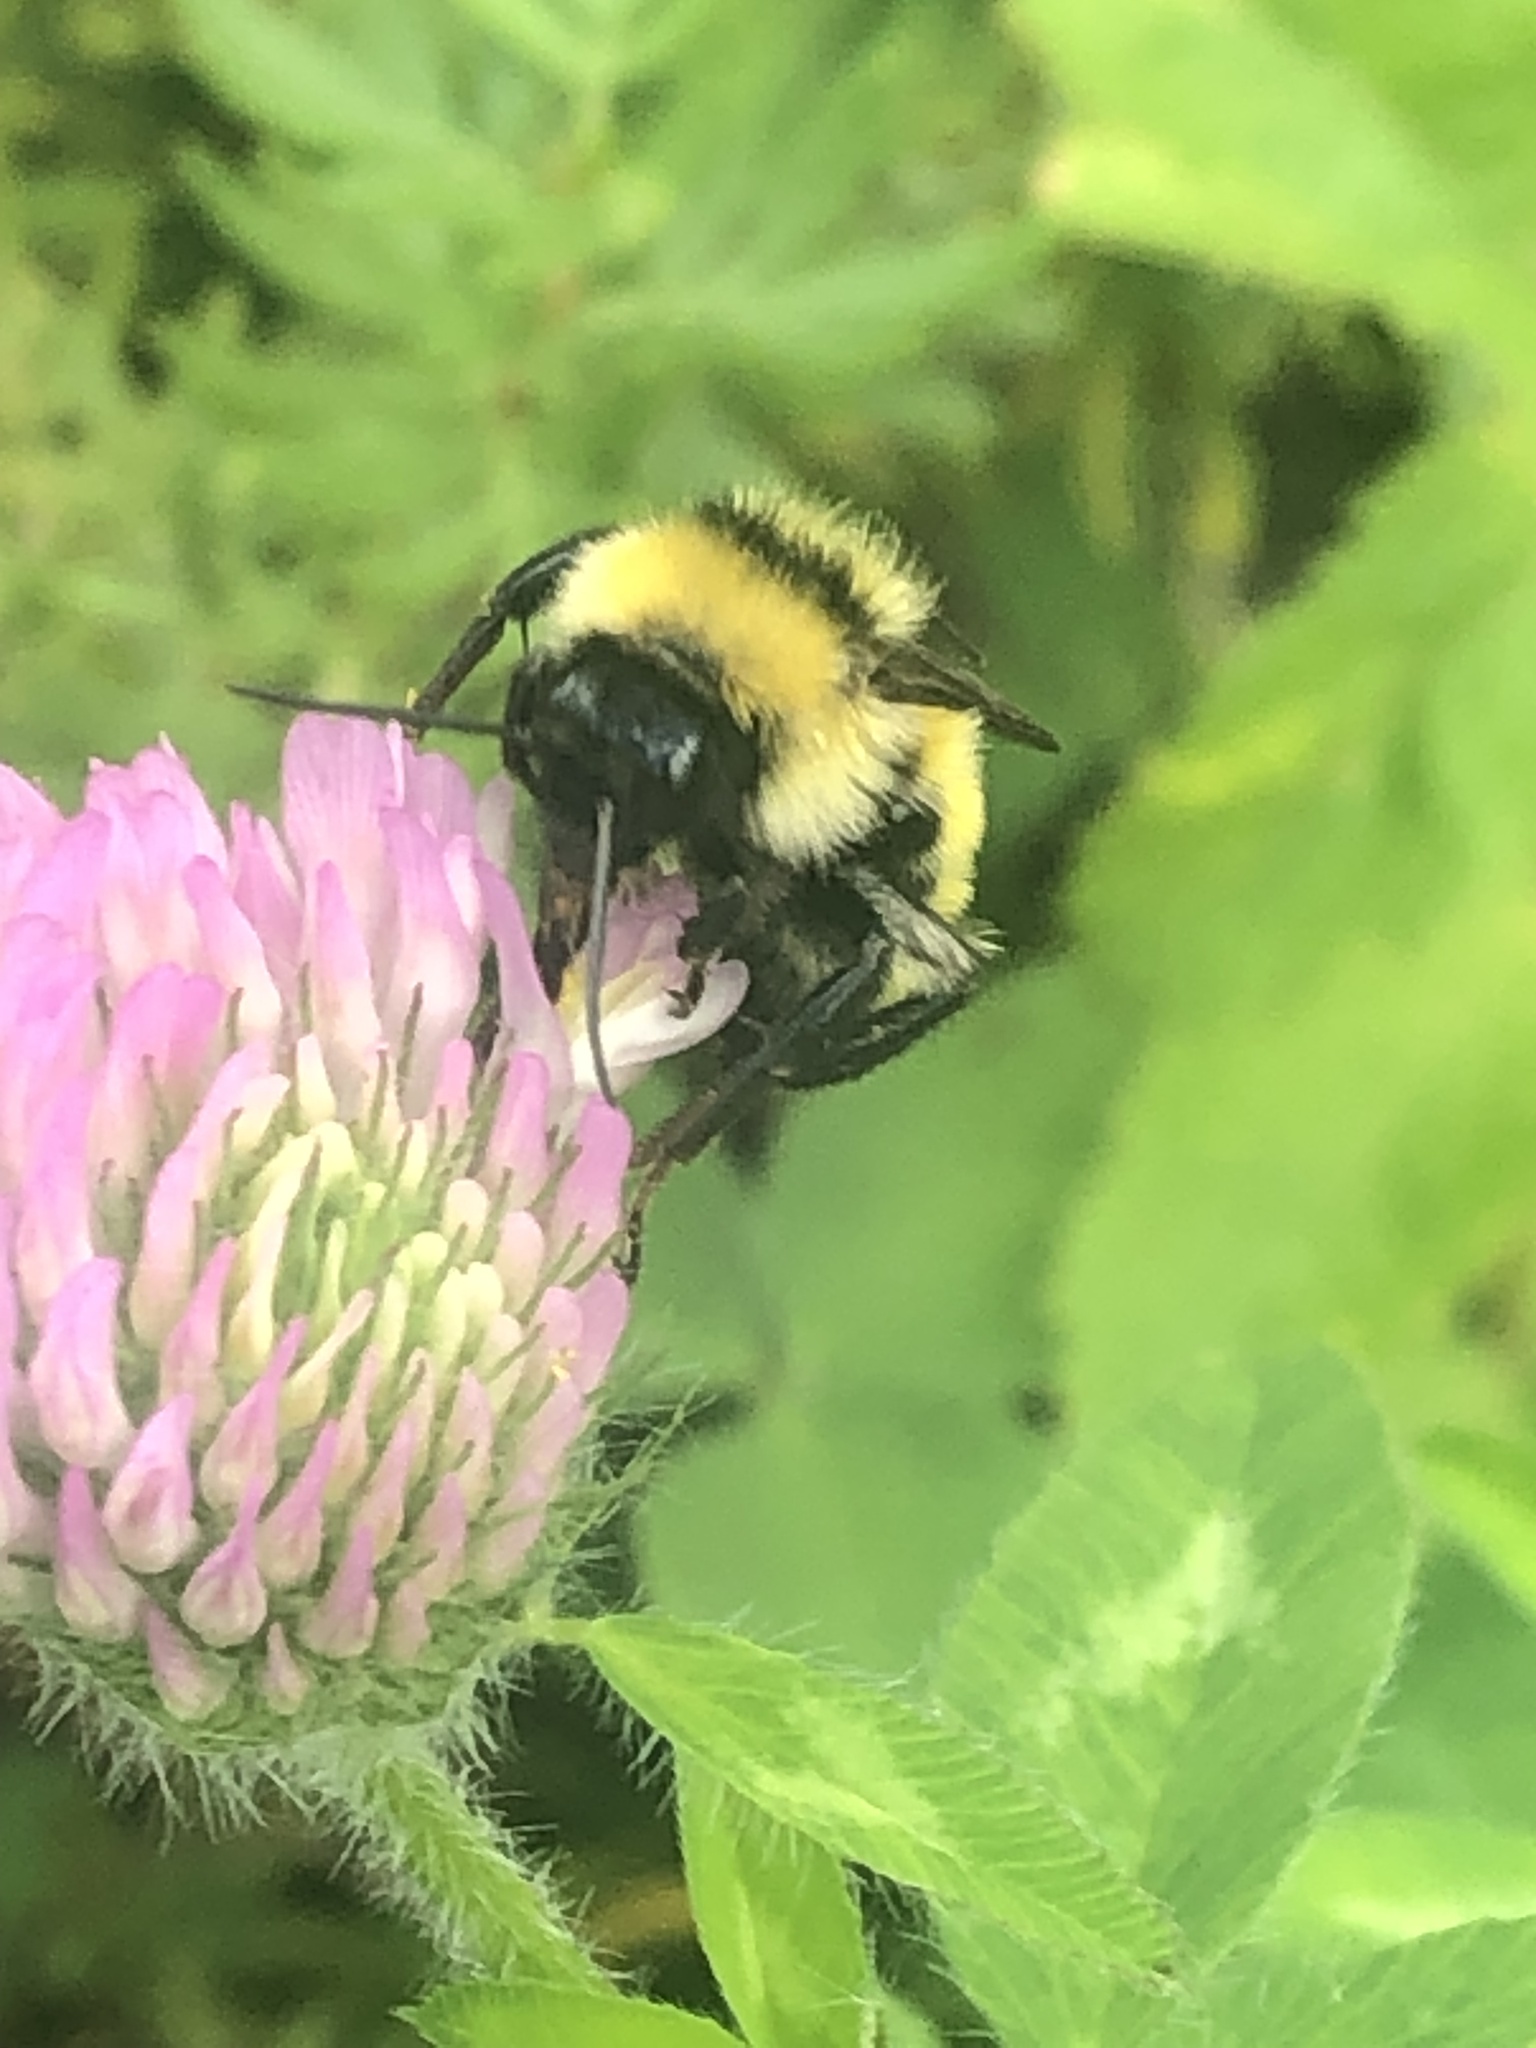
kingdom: Animalia
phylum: Arthropoda
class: Insecta
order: Hymenoptera
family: Apidae
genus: Bombus
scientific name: Bombus fervidus
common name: Yellow bumble bee
